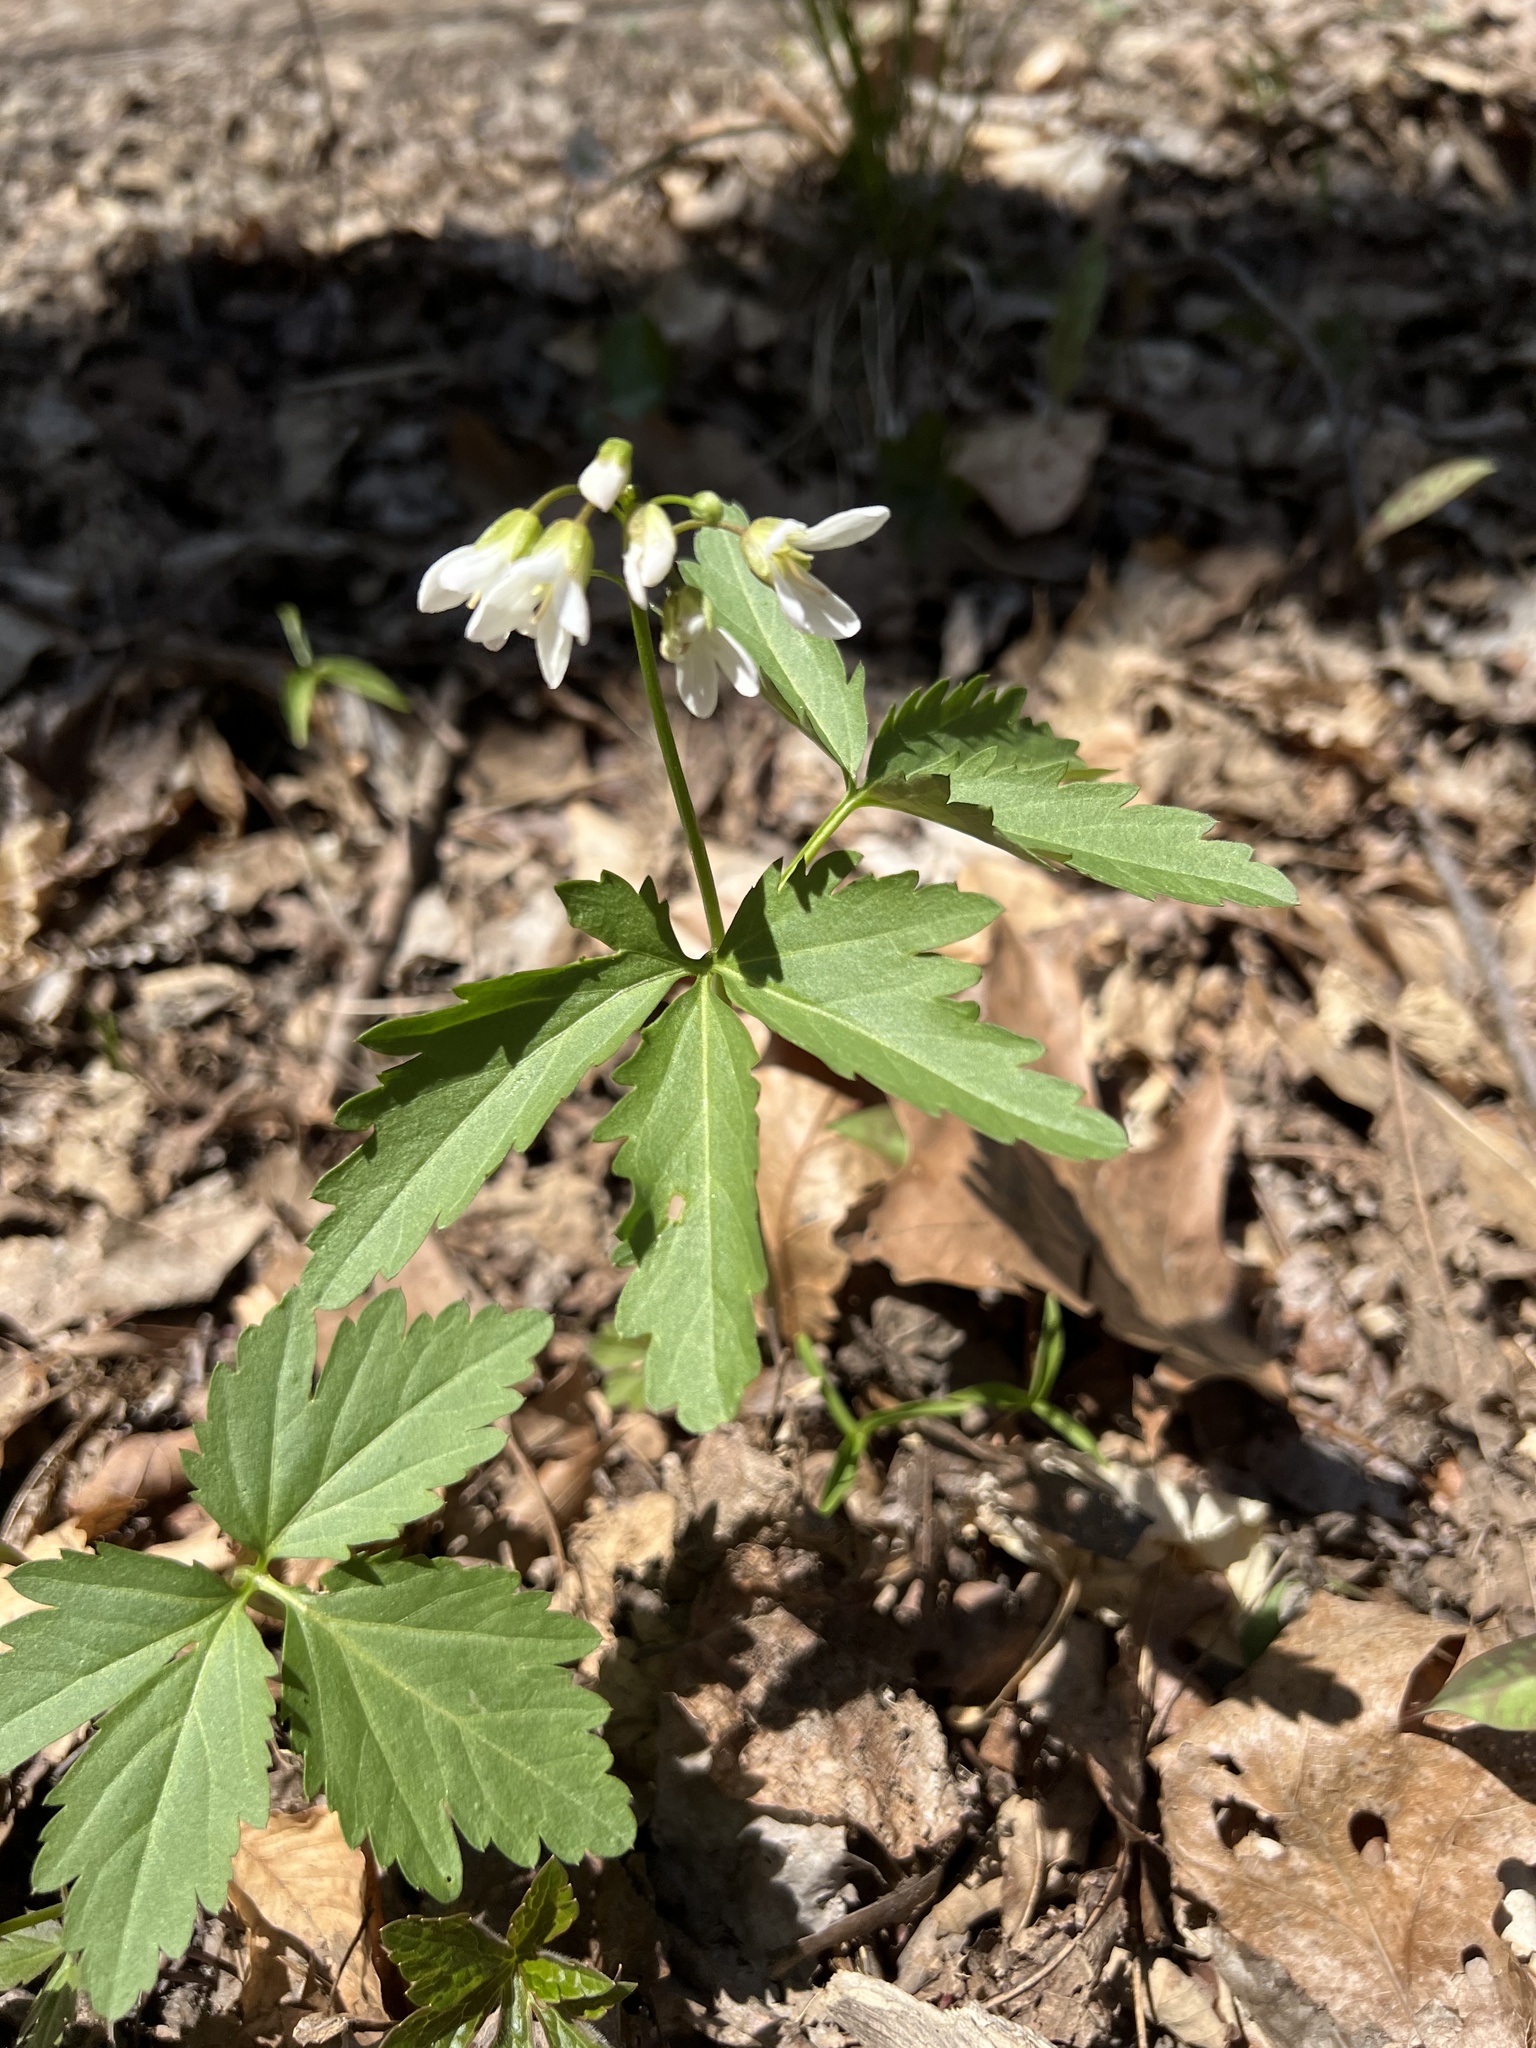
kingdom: Plantae
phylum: Tracheophyta
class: Magnoliopsida
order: Brassicales
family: Brassicaceae
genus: Cardamine
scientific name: Cardamine diphylla
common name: Broad-leaved toothwort
